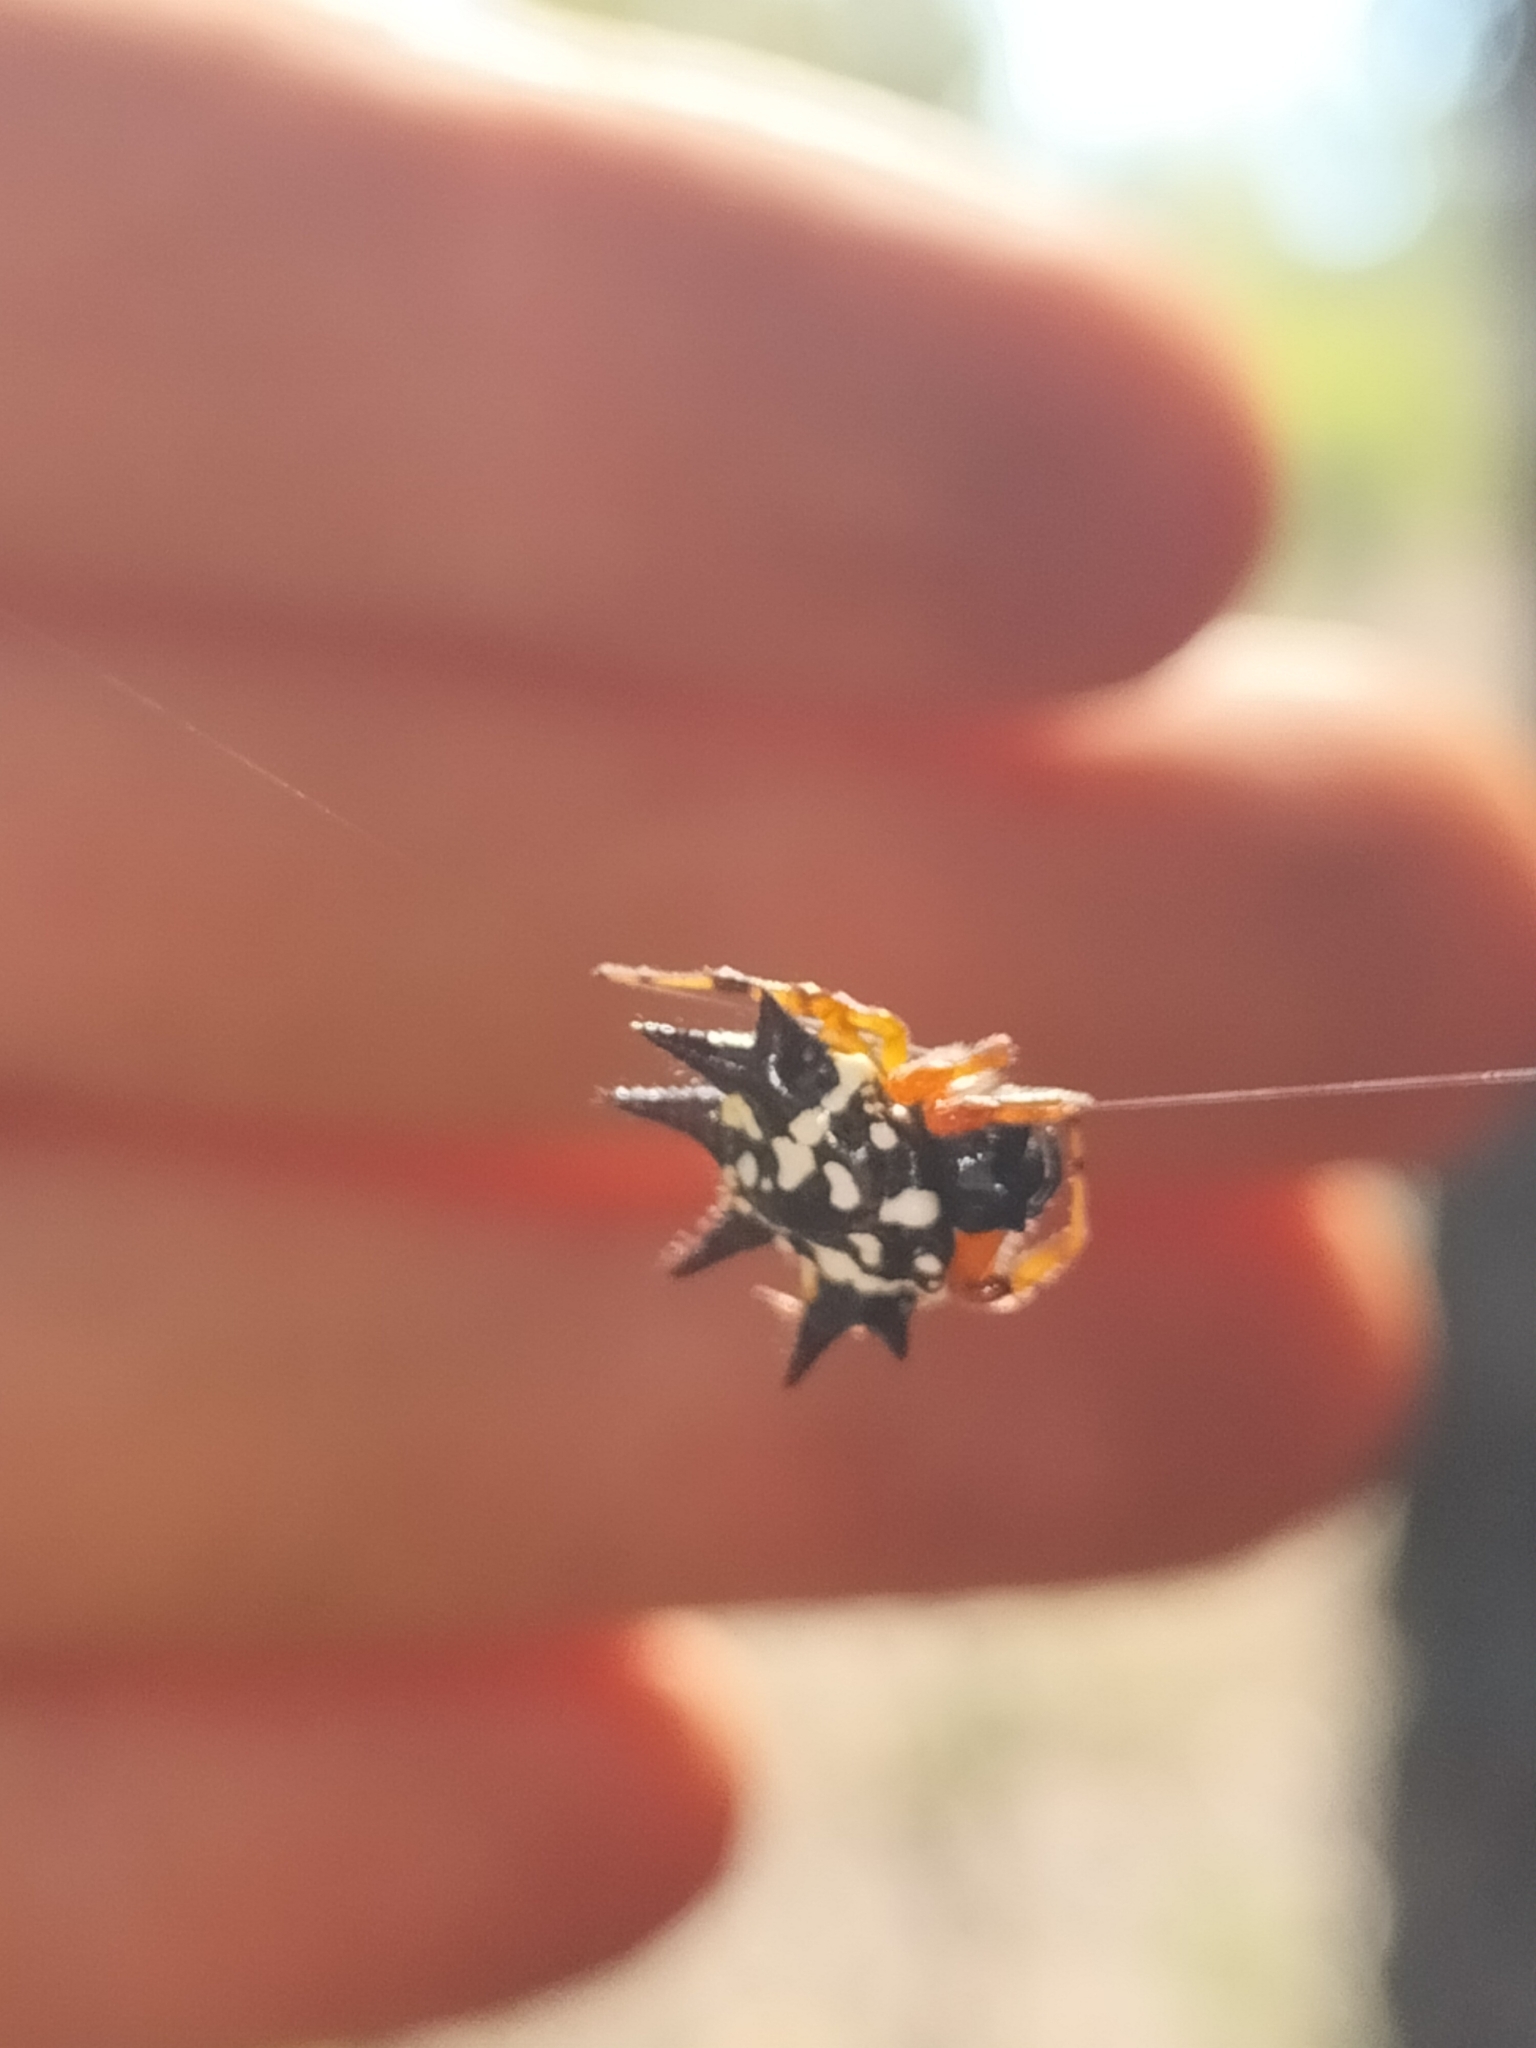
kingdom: Animalia
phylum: Arthropoda
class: Arachnida
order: Araneae
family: Araneidae
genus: Austracantha
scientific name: Austracantha minax
